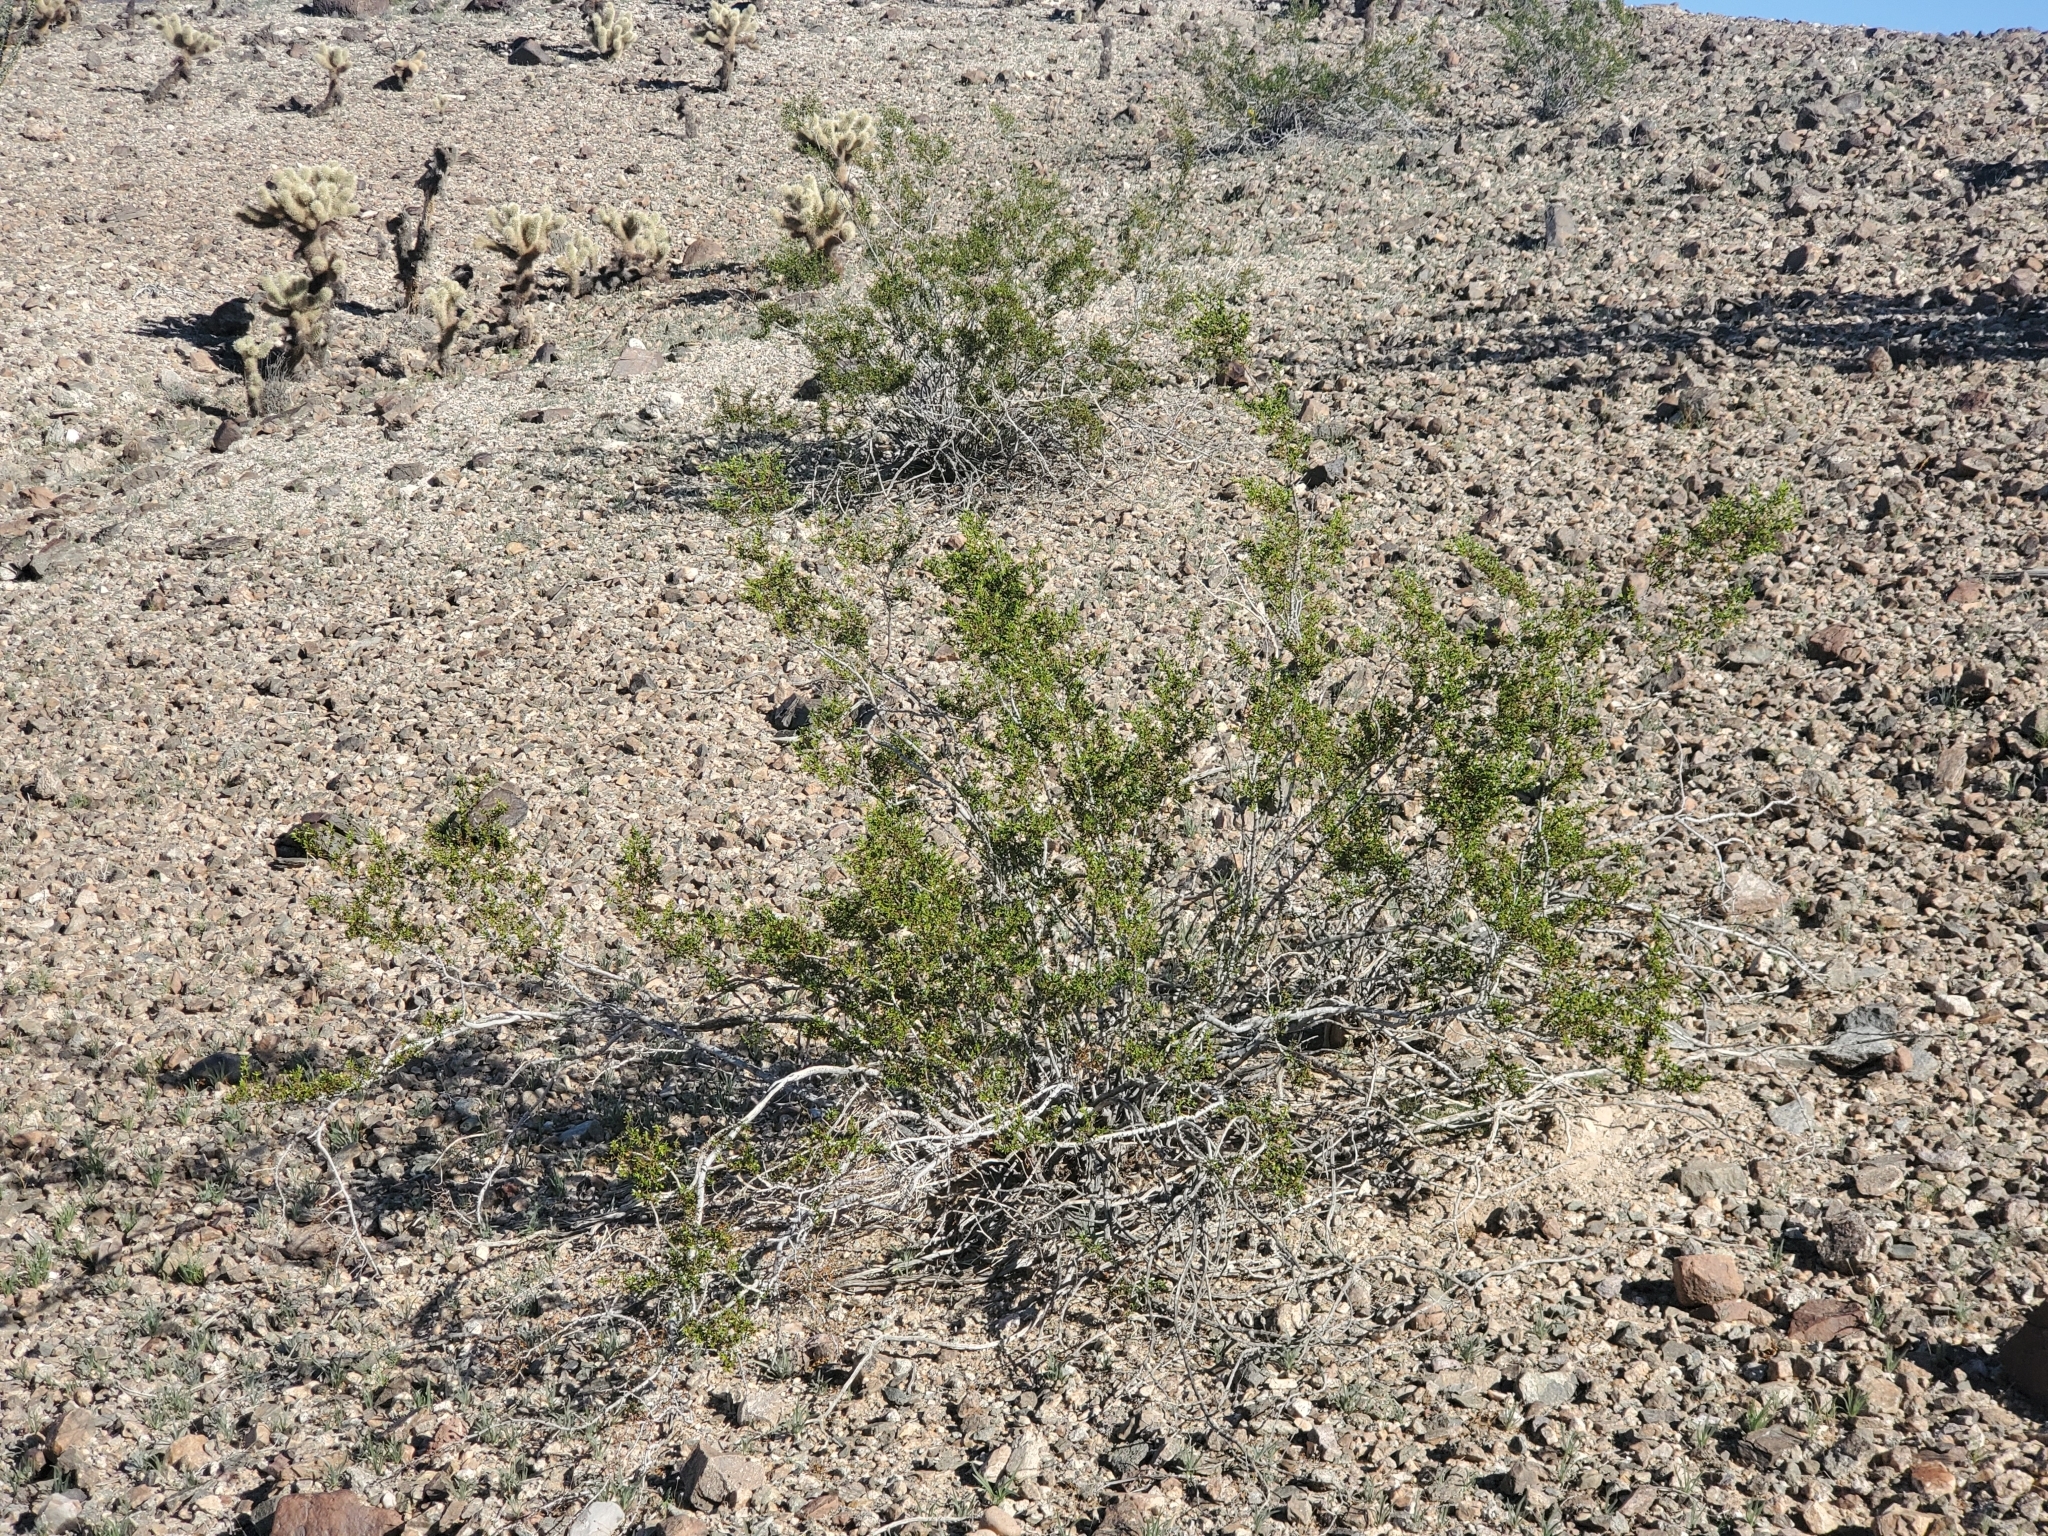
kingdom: Plantae
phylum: Tracheophyta
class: Magnoliopsida
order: Zygophyllales
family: Zygophyllaceae
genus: Larrea
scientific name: Larrea tridentata
